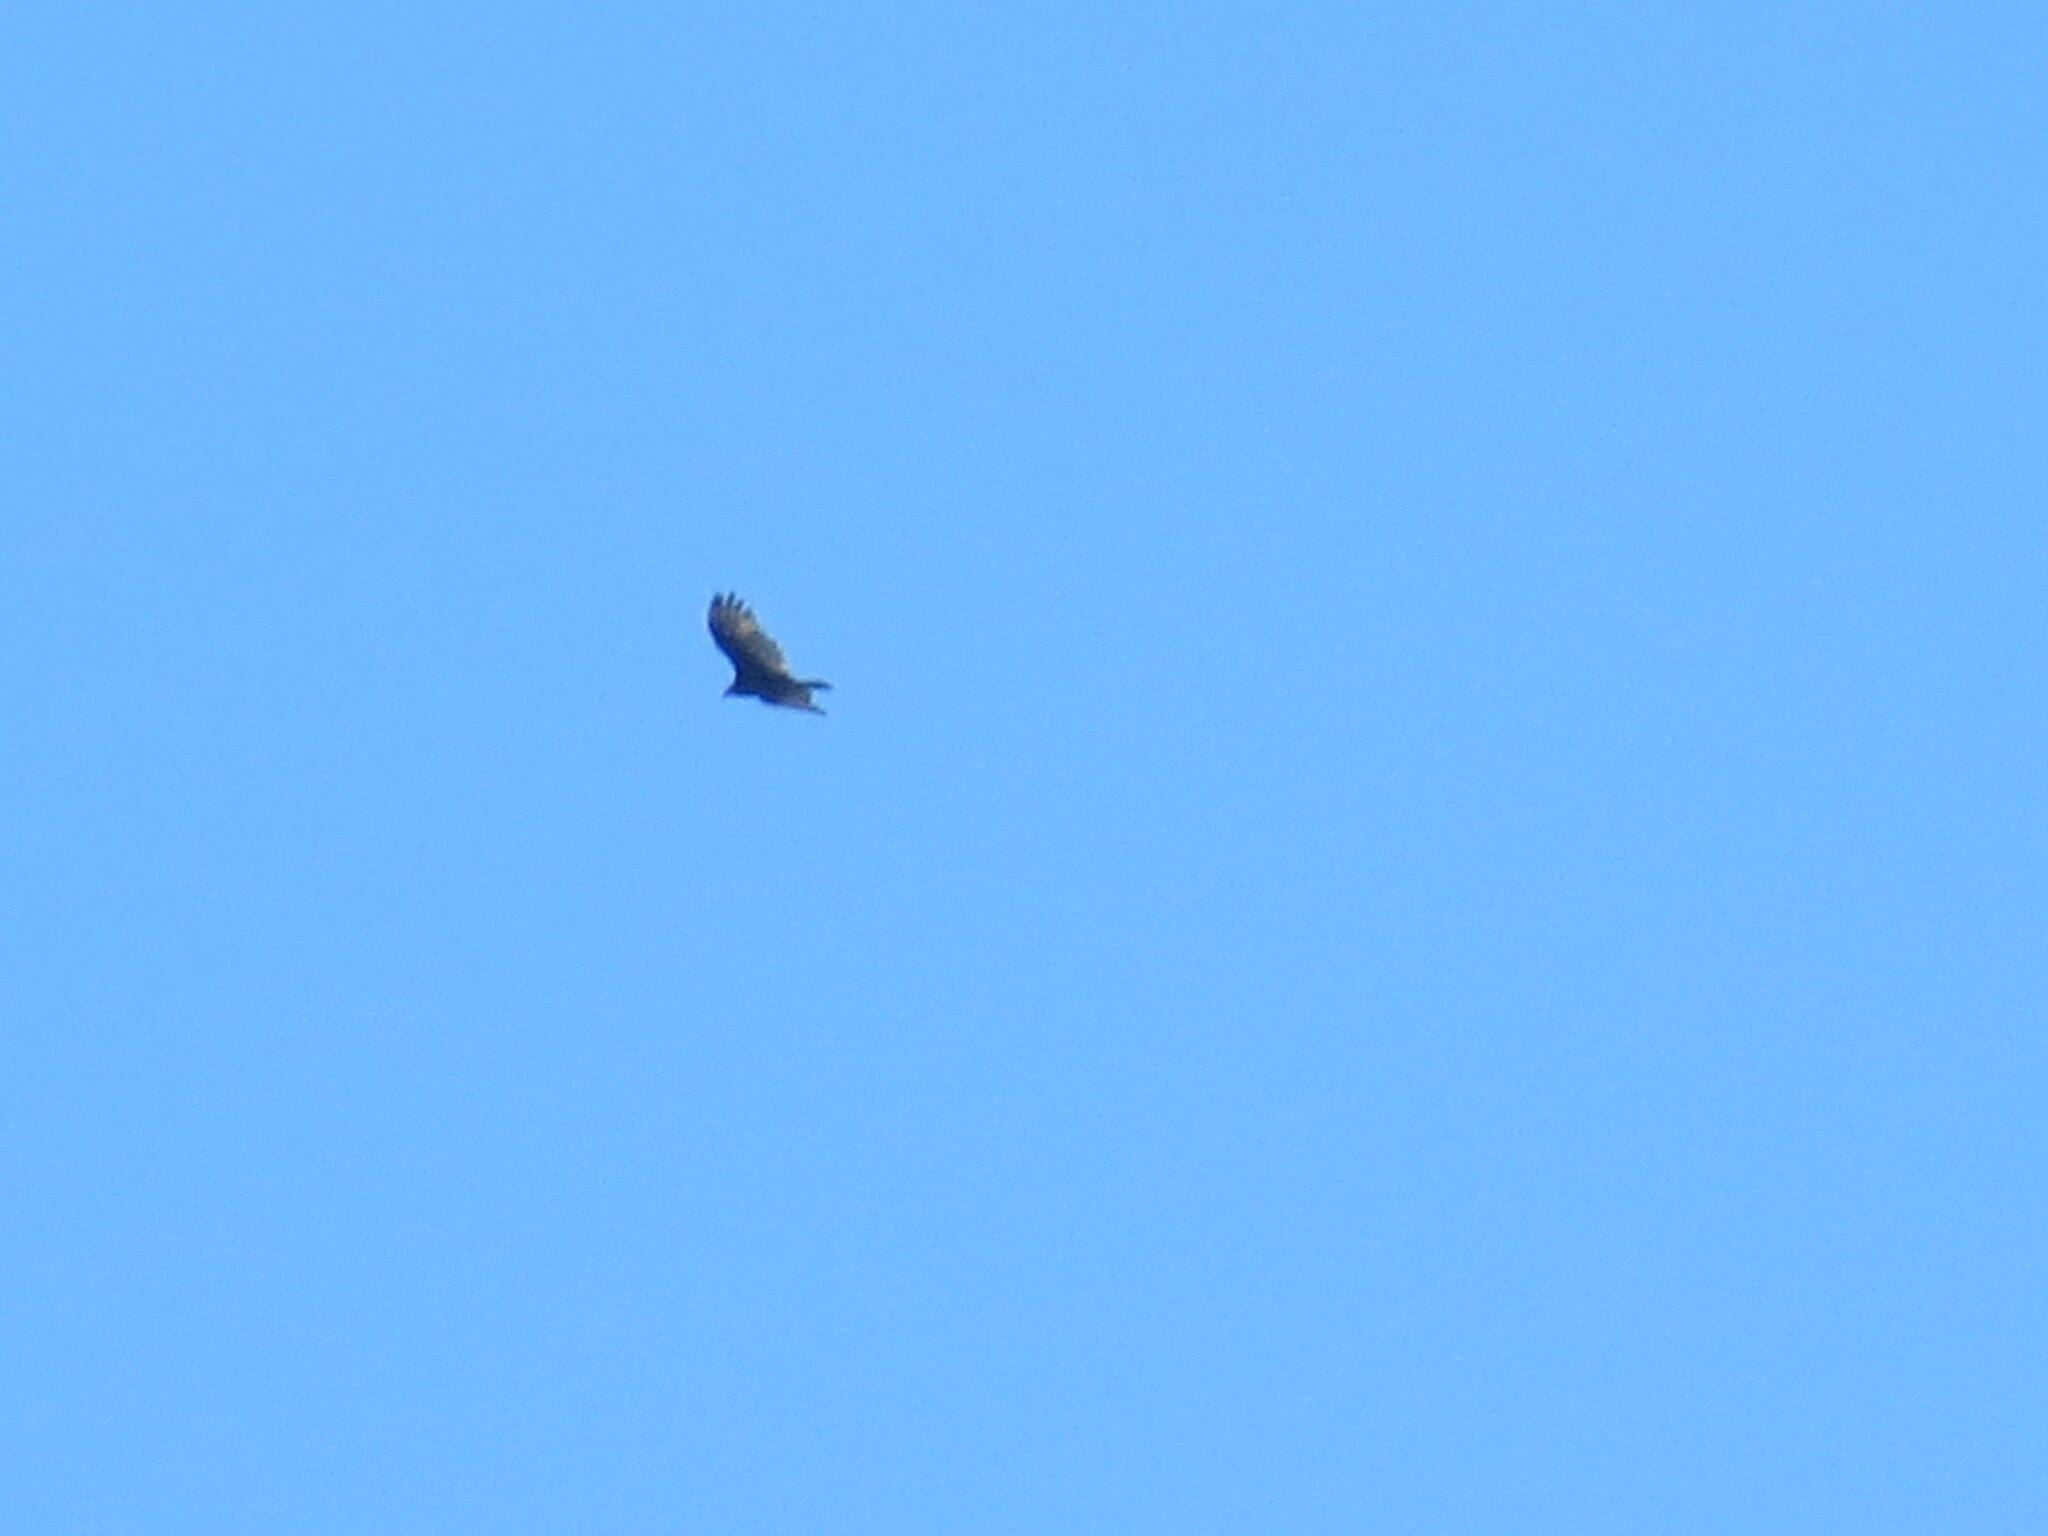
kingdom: Animalia
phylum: Chordata
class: Aves
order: Accipitriformes
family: Cathartidae
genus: Cathartes
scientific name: Cathartes aura
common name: Turkey vulture
